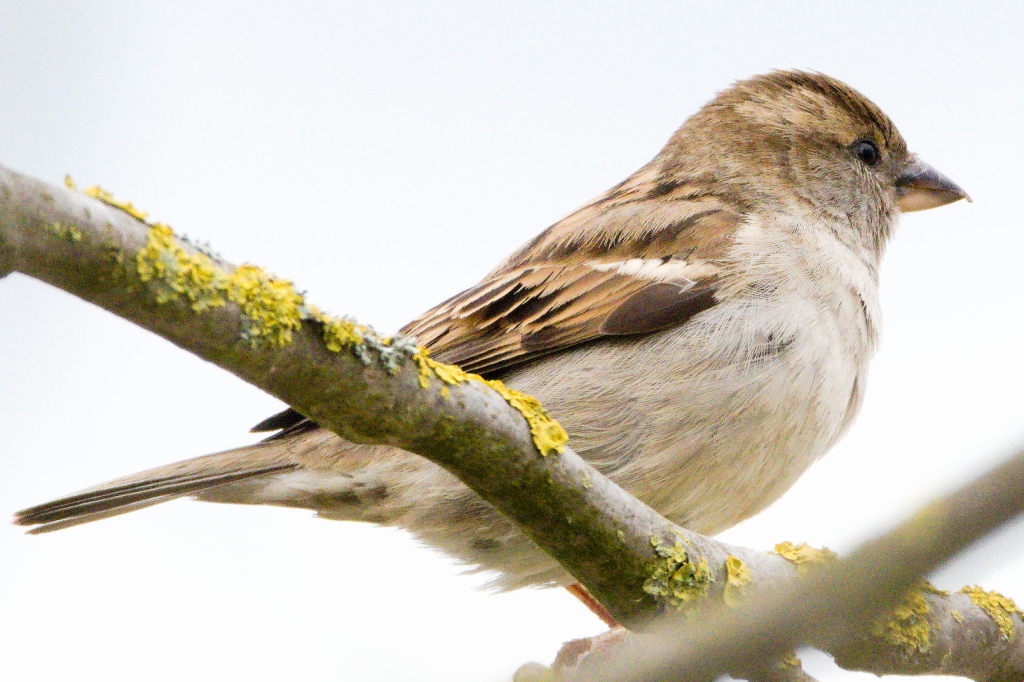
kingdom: Animalia
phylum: Chordata
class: Aves
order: Passeriformes
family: Passeridae
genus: Passer
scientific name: Passer domesticus
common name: House sparrow
